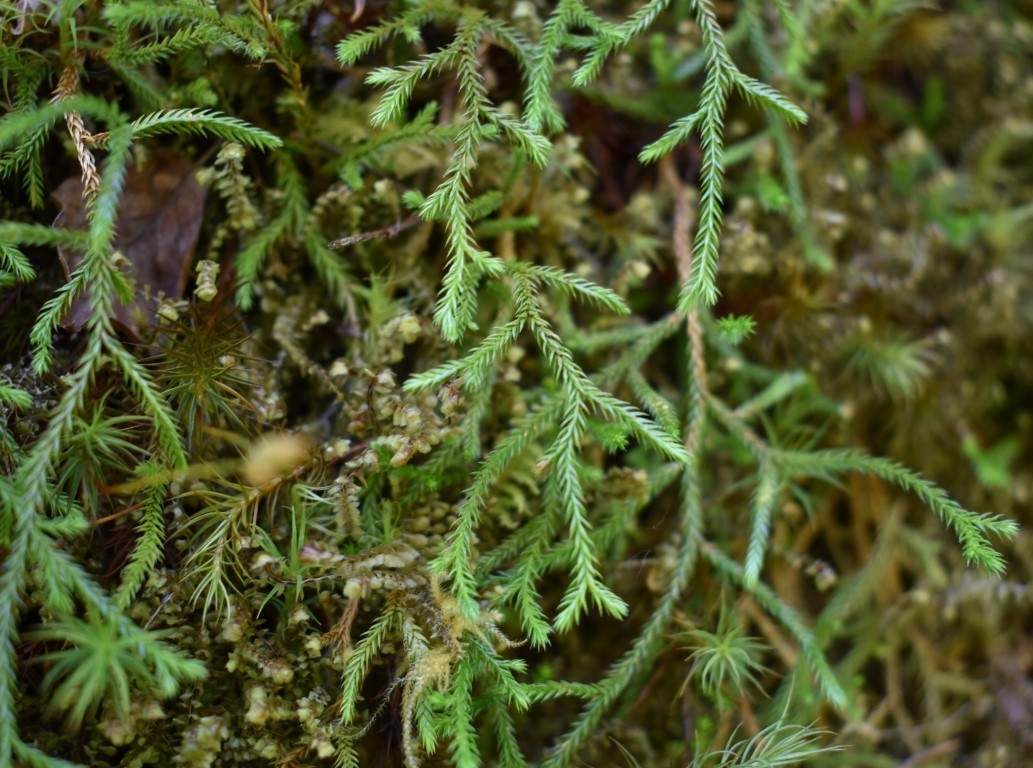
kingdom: Plantae
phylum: Tracheophyta
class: Lycopodiopsida
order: Selaginellales
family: Selaginellaceae
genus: Selaginella
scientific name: Selaginella oregana
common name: Oregon selaginella
